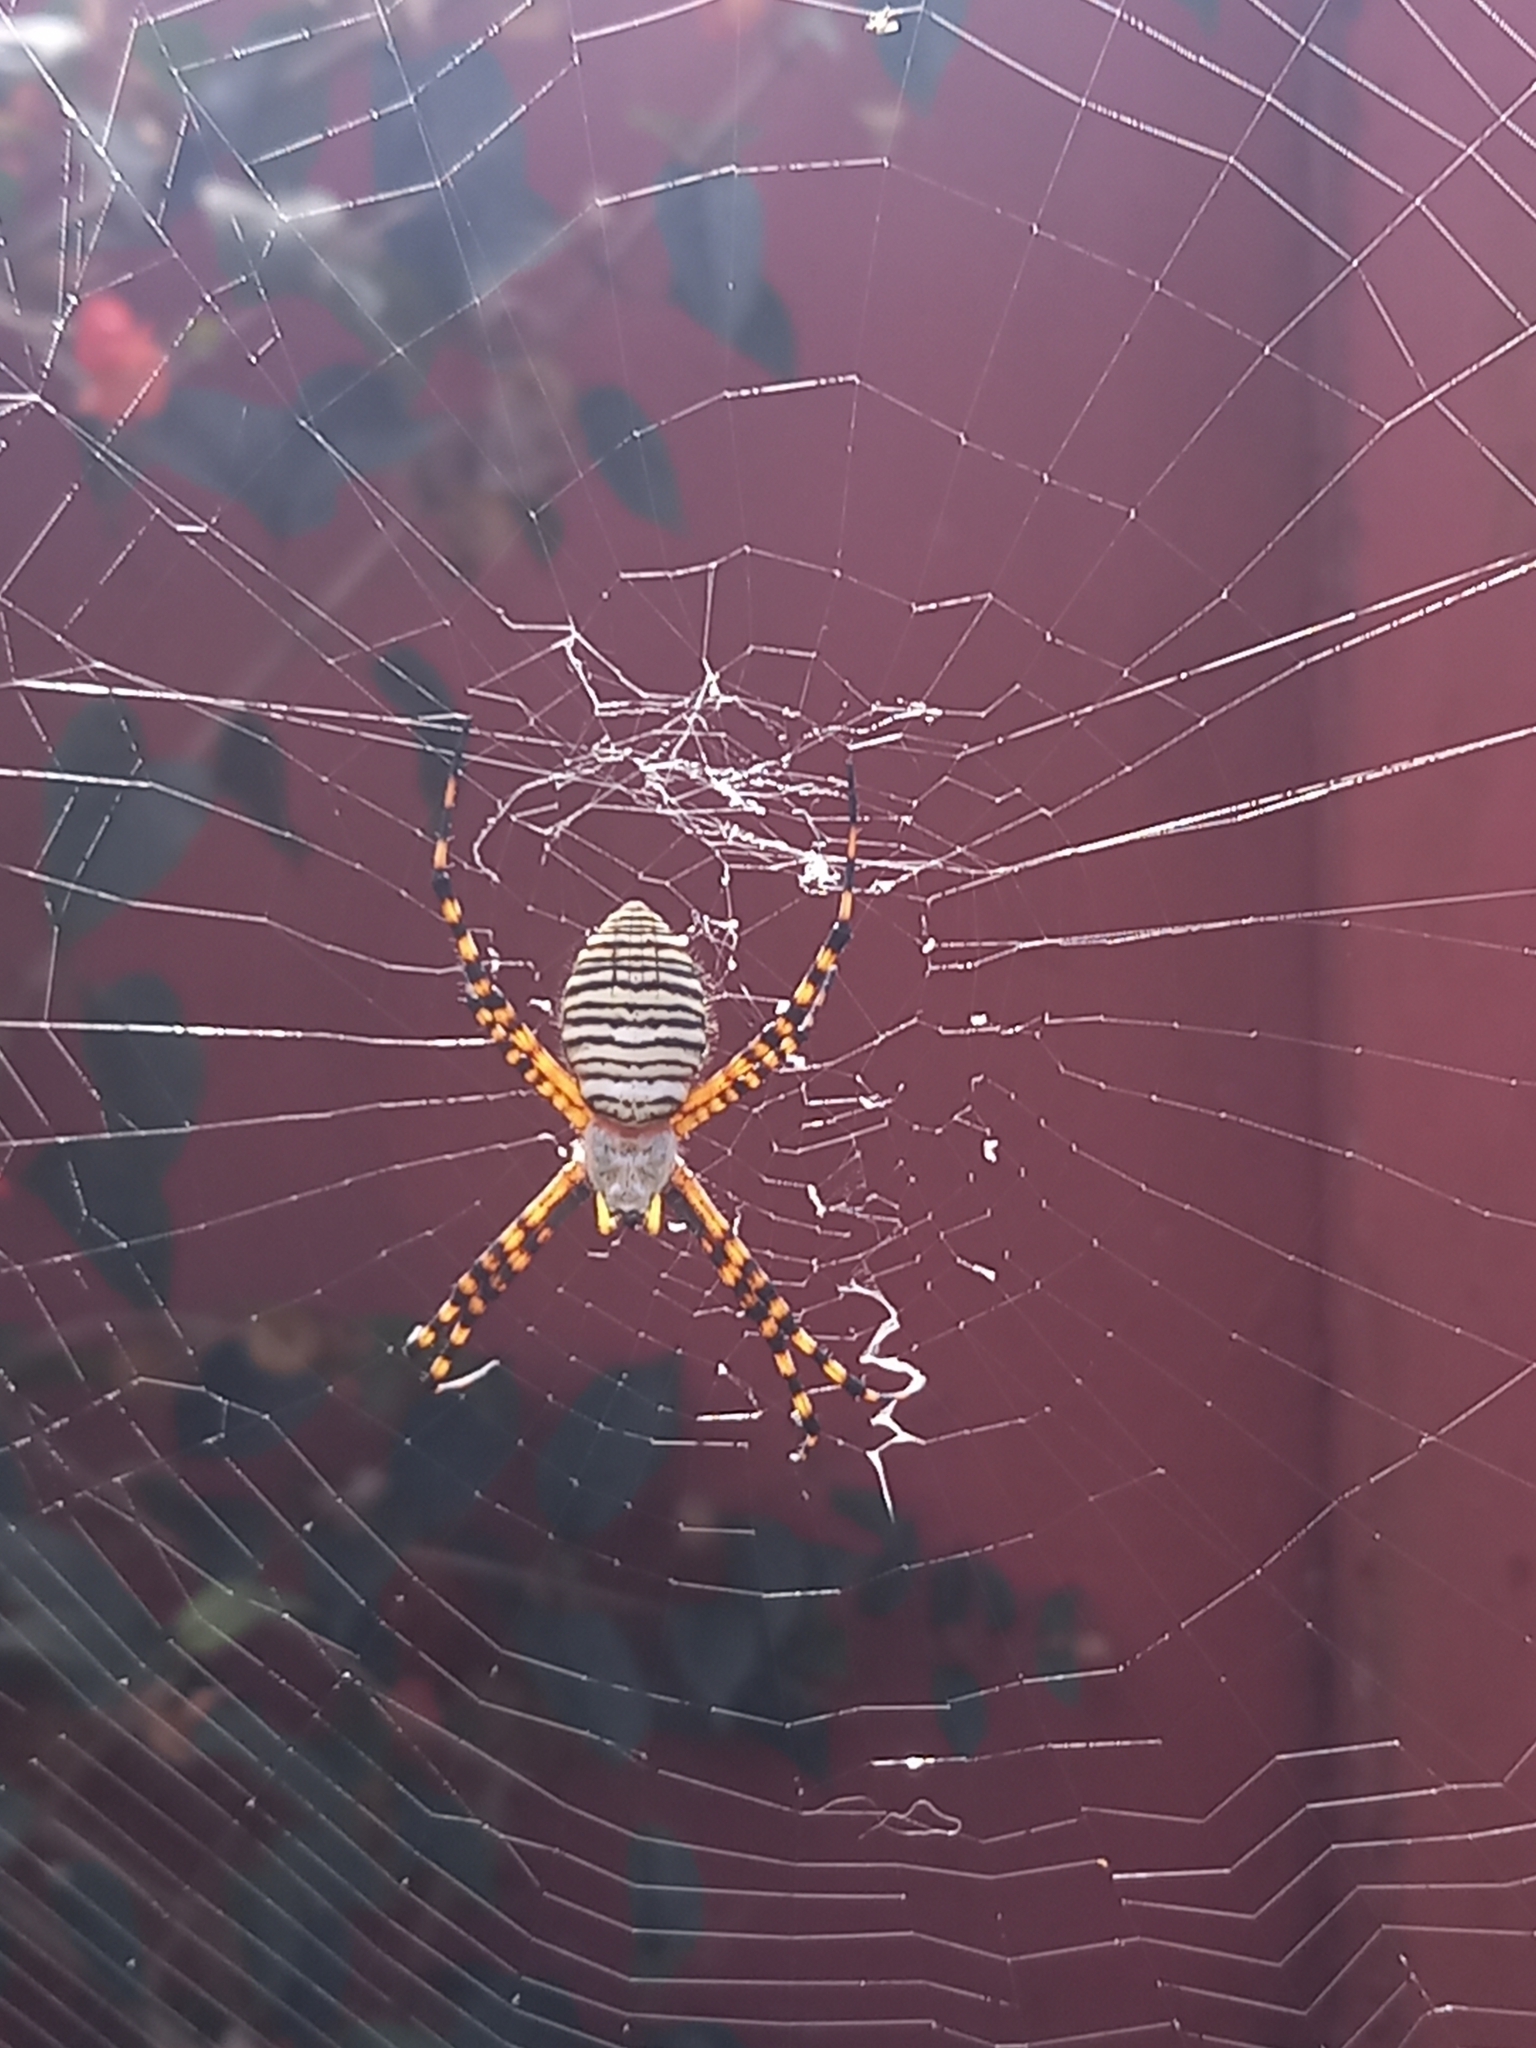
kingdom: Animalia
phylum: Arthropoda
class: Arachnida
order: Araneae
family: Araneidae
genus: Argiope
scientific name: Argiope trifasciata
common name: Banded garden spider
